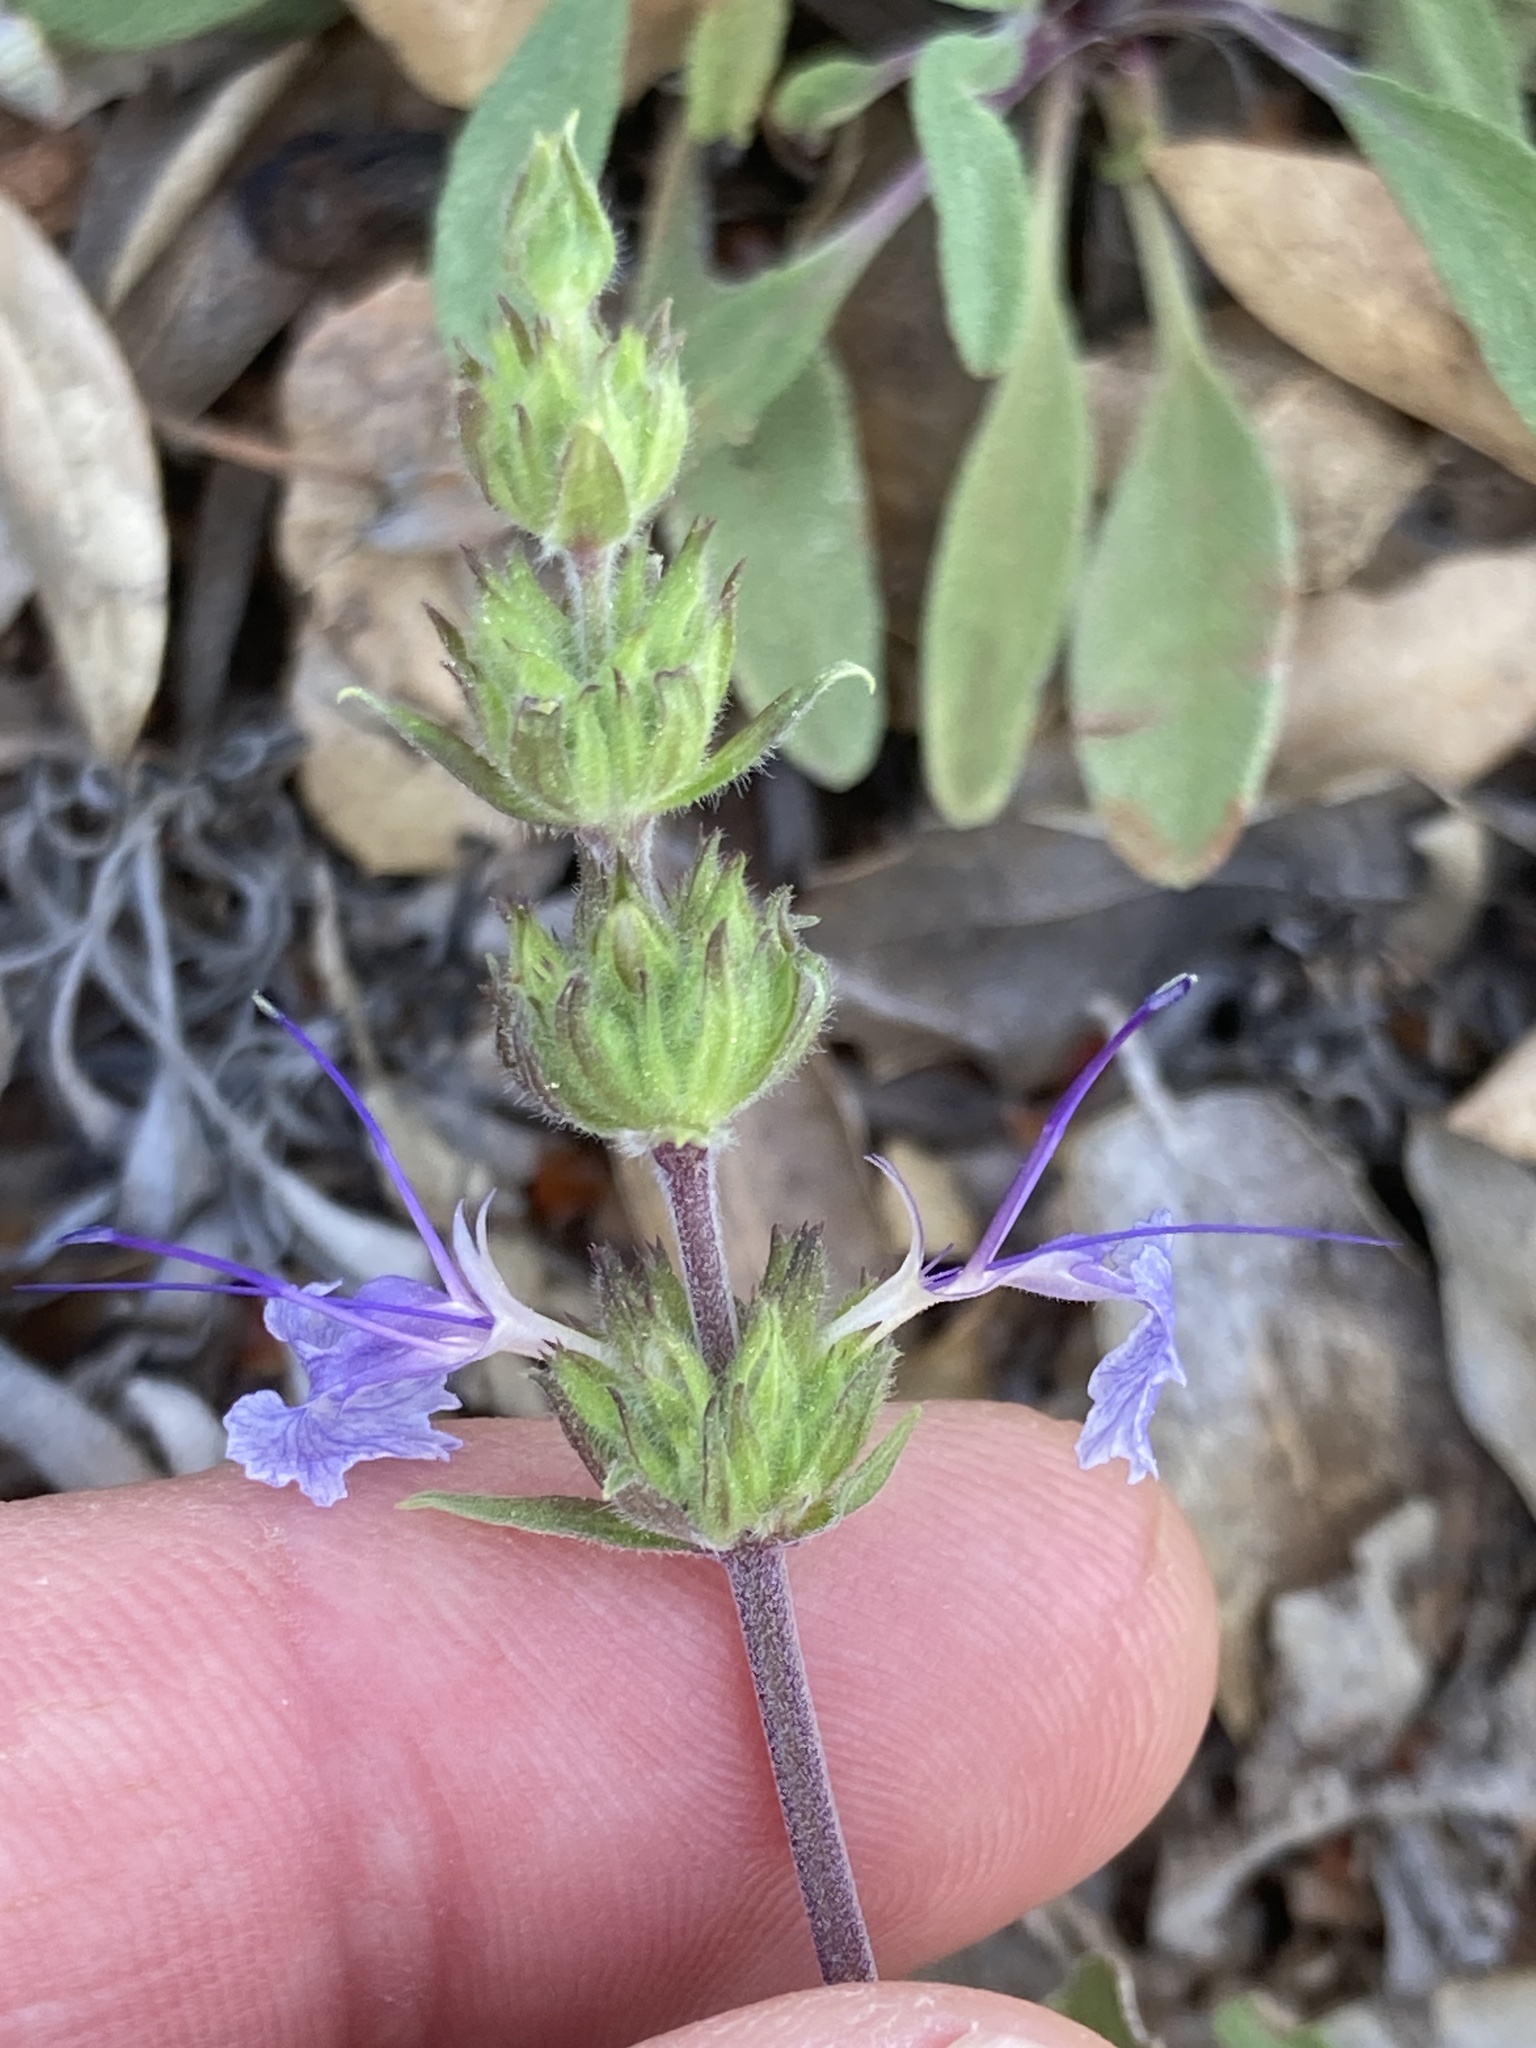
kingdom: Plantae
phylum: Tracheophyta
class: Magnoliopsida
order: Lamiales
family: Lamiaceae
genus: Salvia
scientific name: Salvia sonomensis
